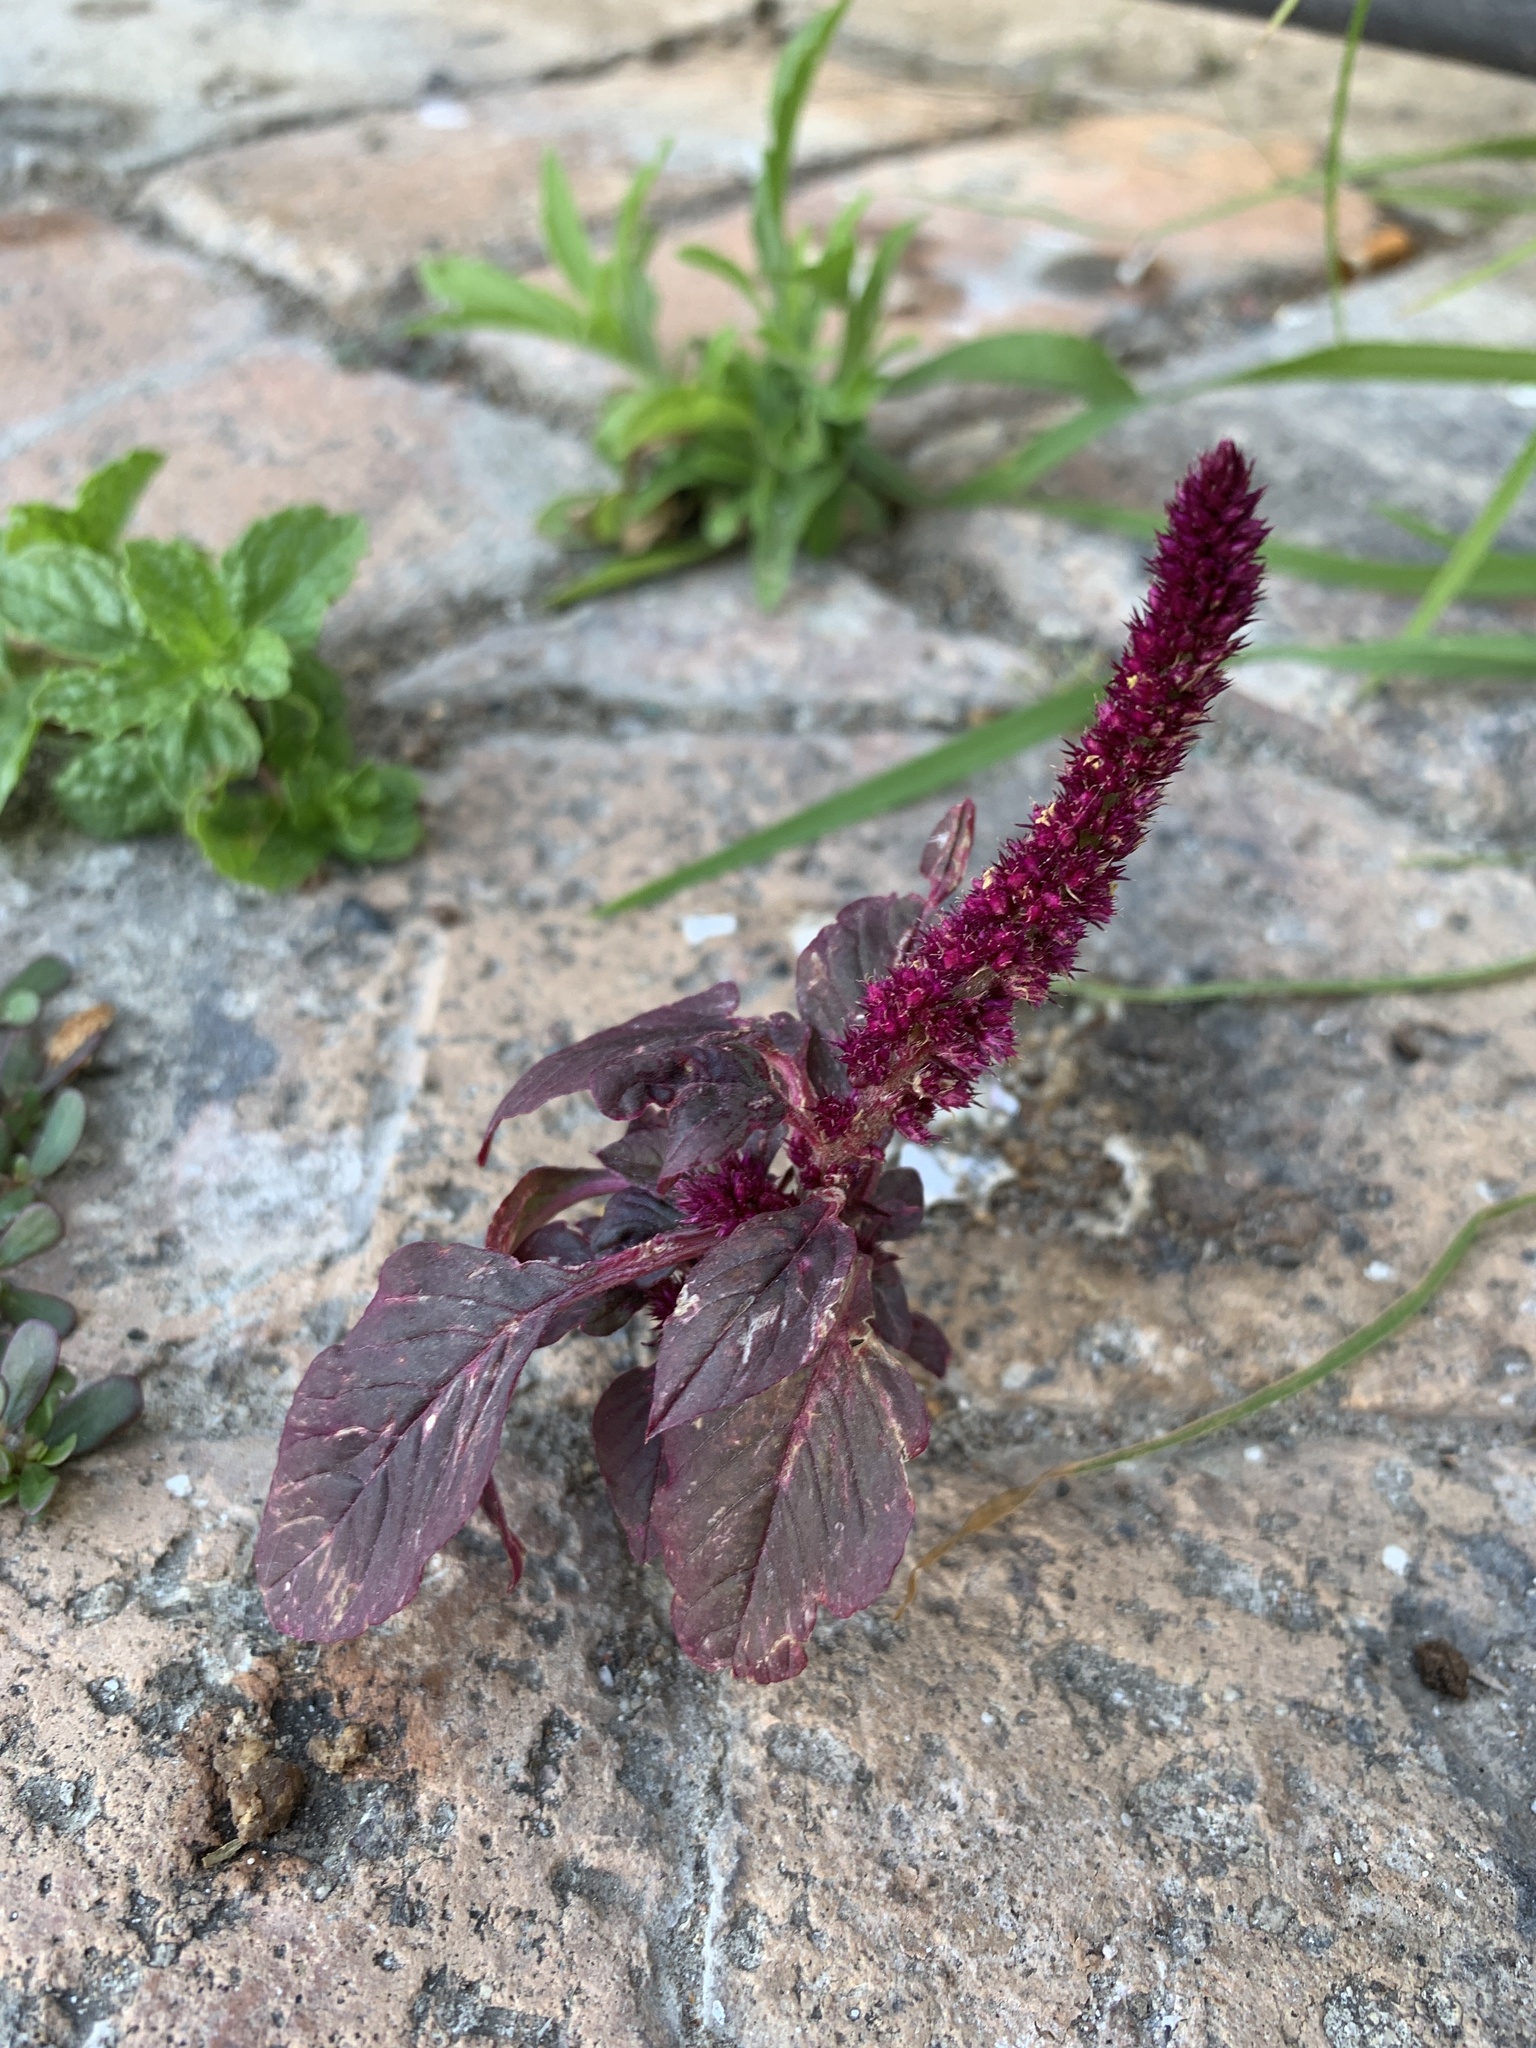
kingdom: Plantae
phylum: Tracheophyta
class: Magnoliopsida
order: Caryophyllales
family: Amaranthaceae
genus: Amaranthus
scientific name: Amaranthus cruentus
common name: Purple amaranth
